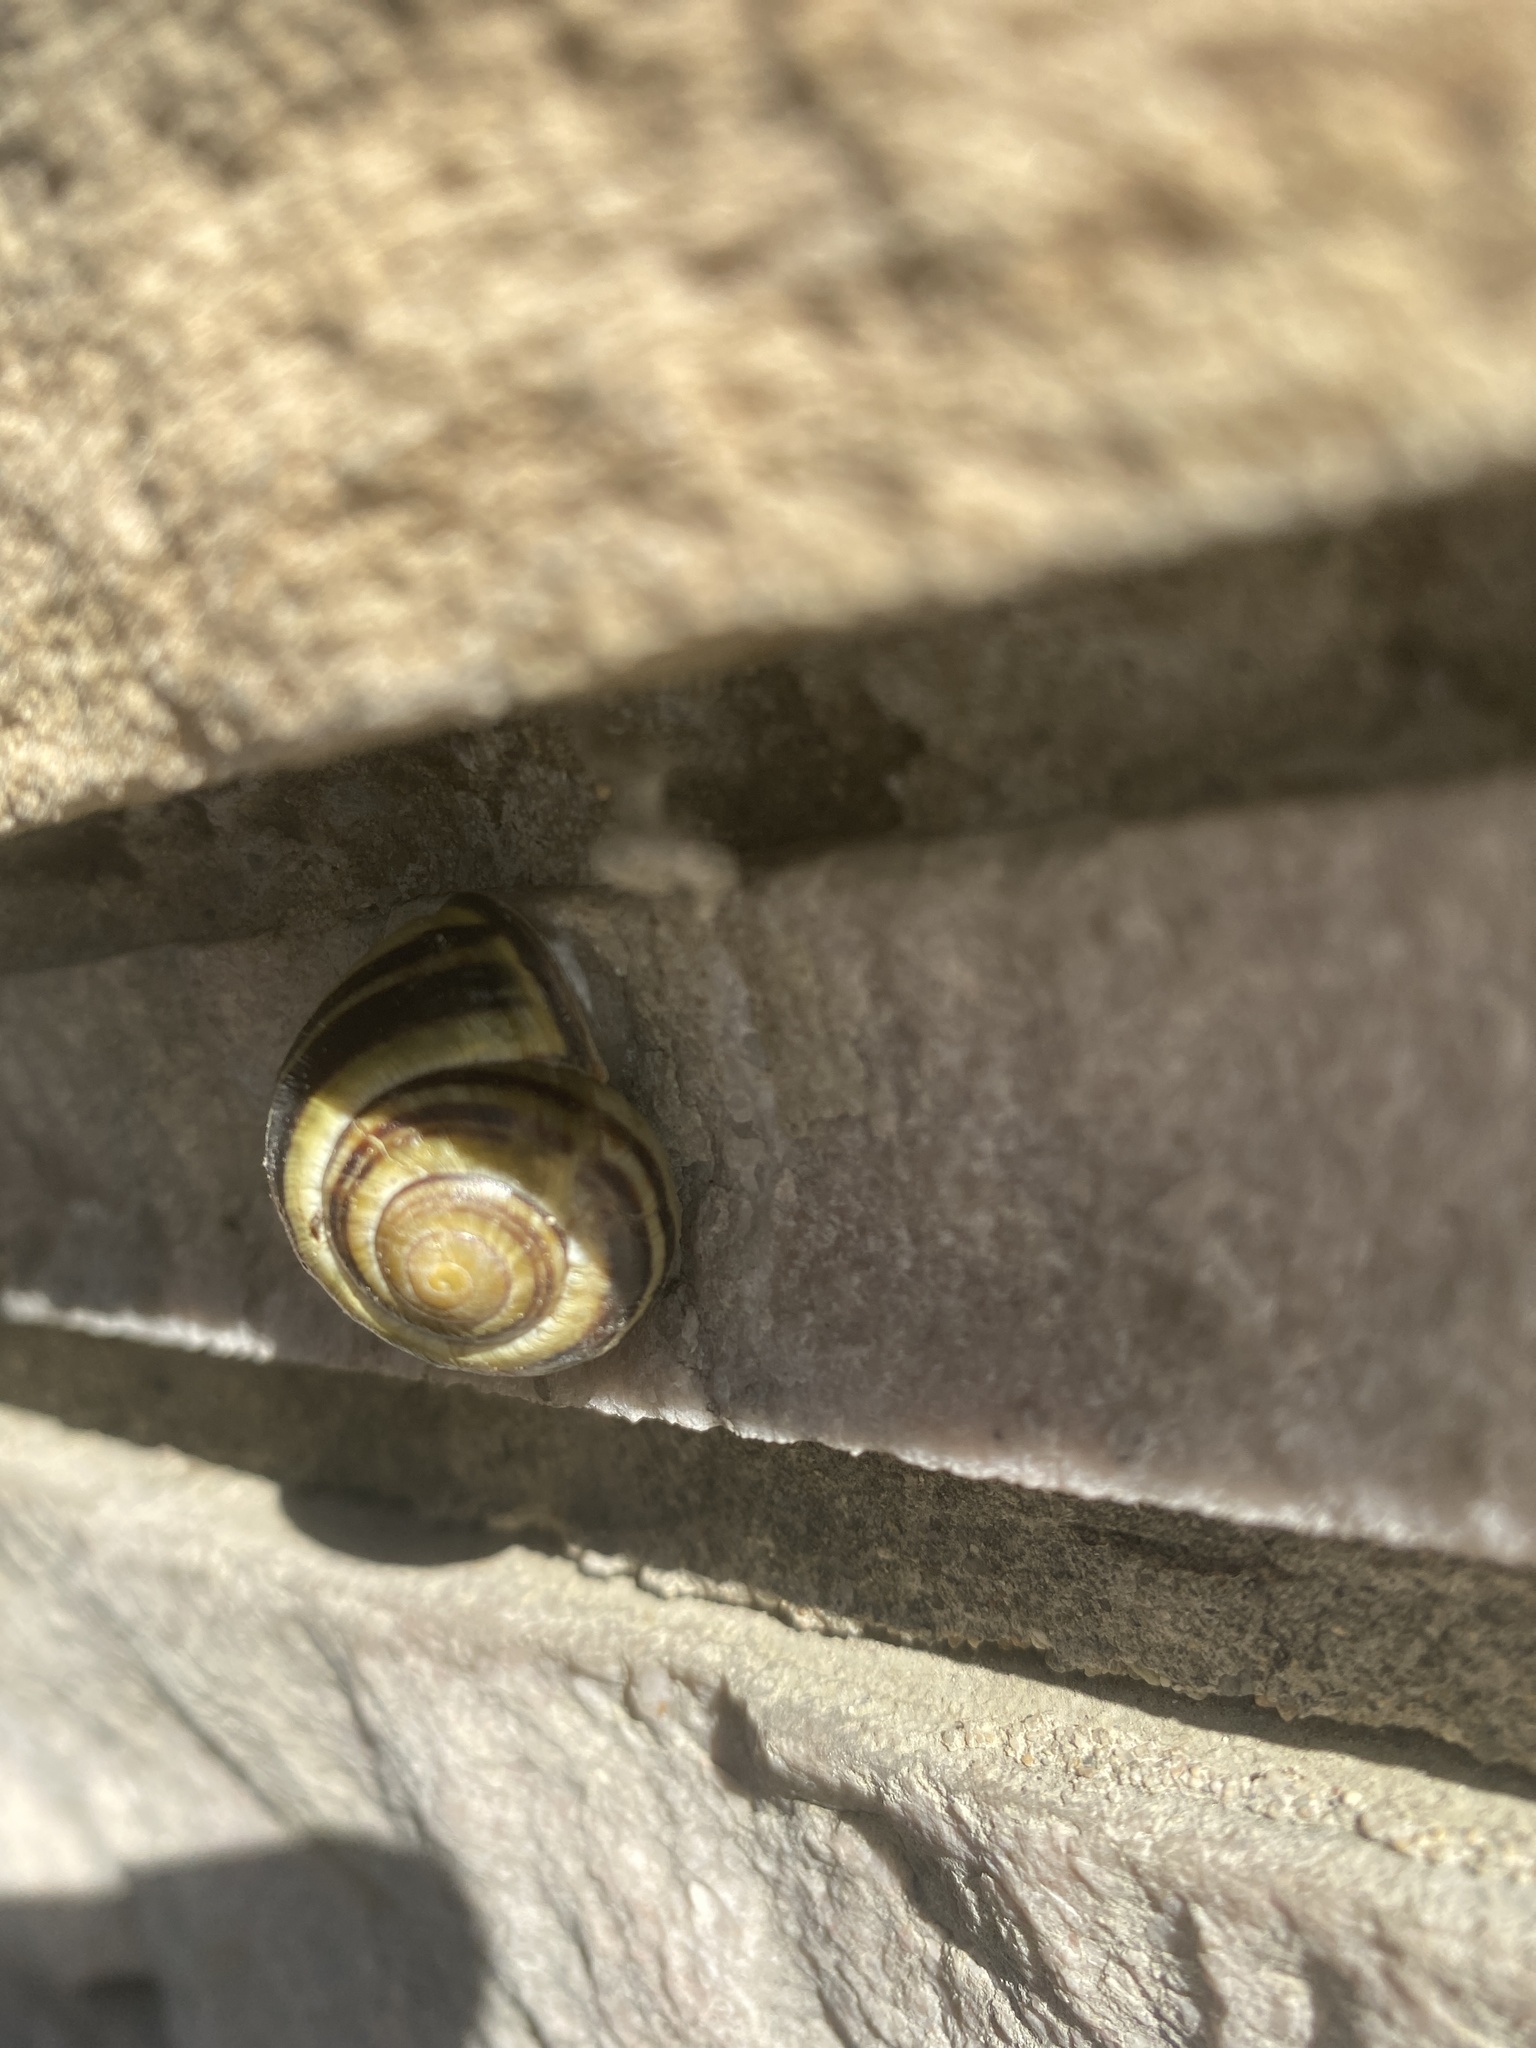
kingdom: Animalia
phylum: Mollusca
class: Gastropoda
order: Stylommatophora
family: Helicidae
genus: Cepaea
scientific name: Cepaea nemoralis
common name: Grovesnail
